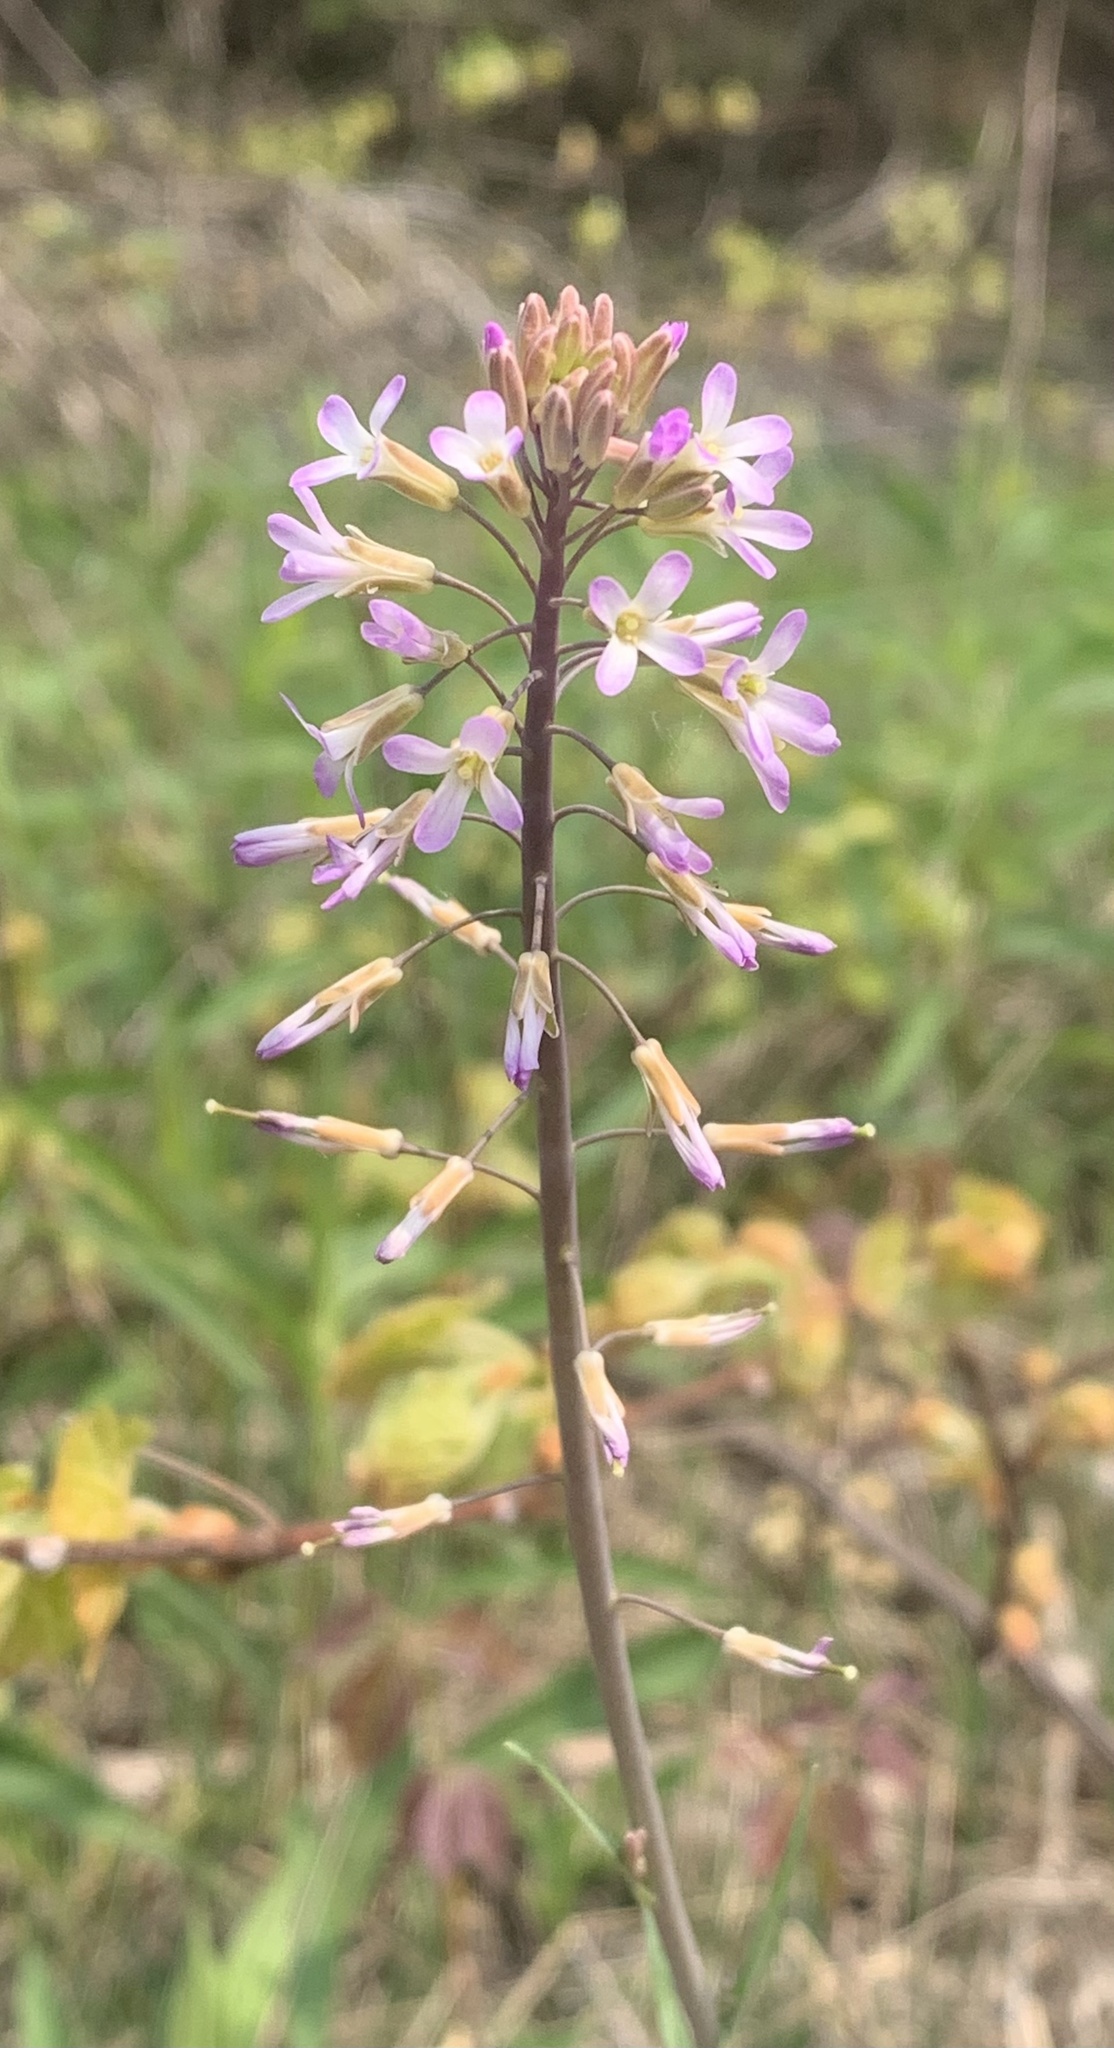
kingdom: Plantae
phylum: Tracheophyta
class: Magnoliopsida
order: Brassicales
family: Brassicaceae
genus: Boechera
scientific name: Boechera grahamii
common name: Graham's rockcress
